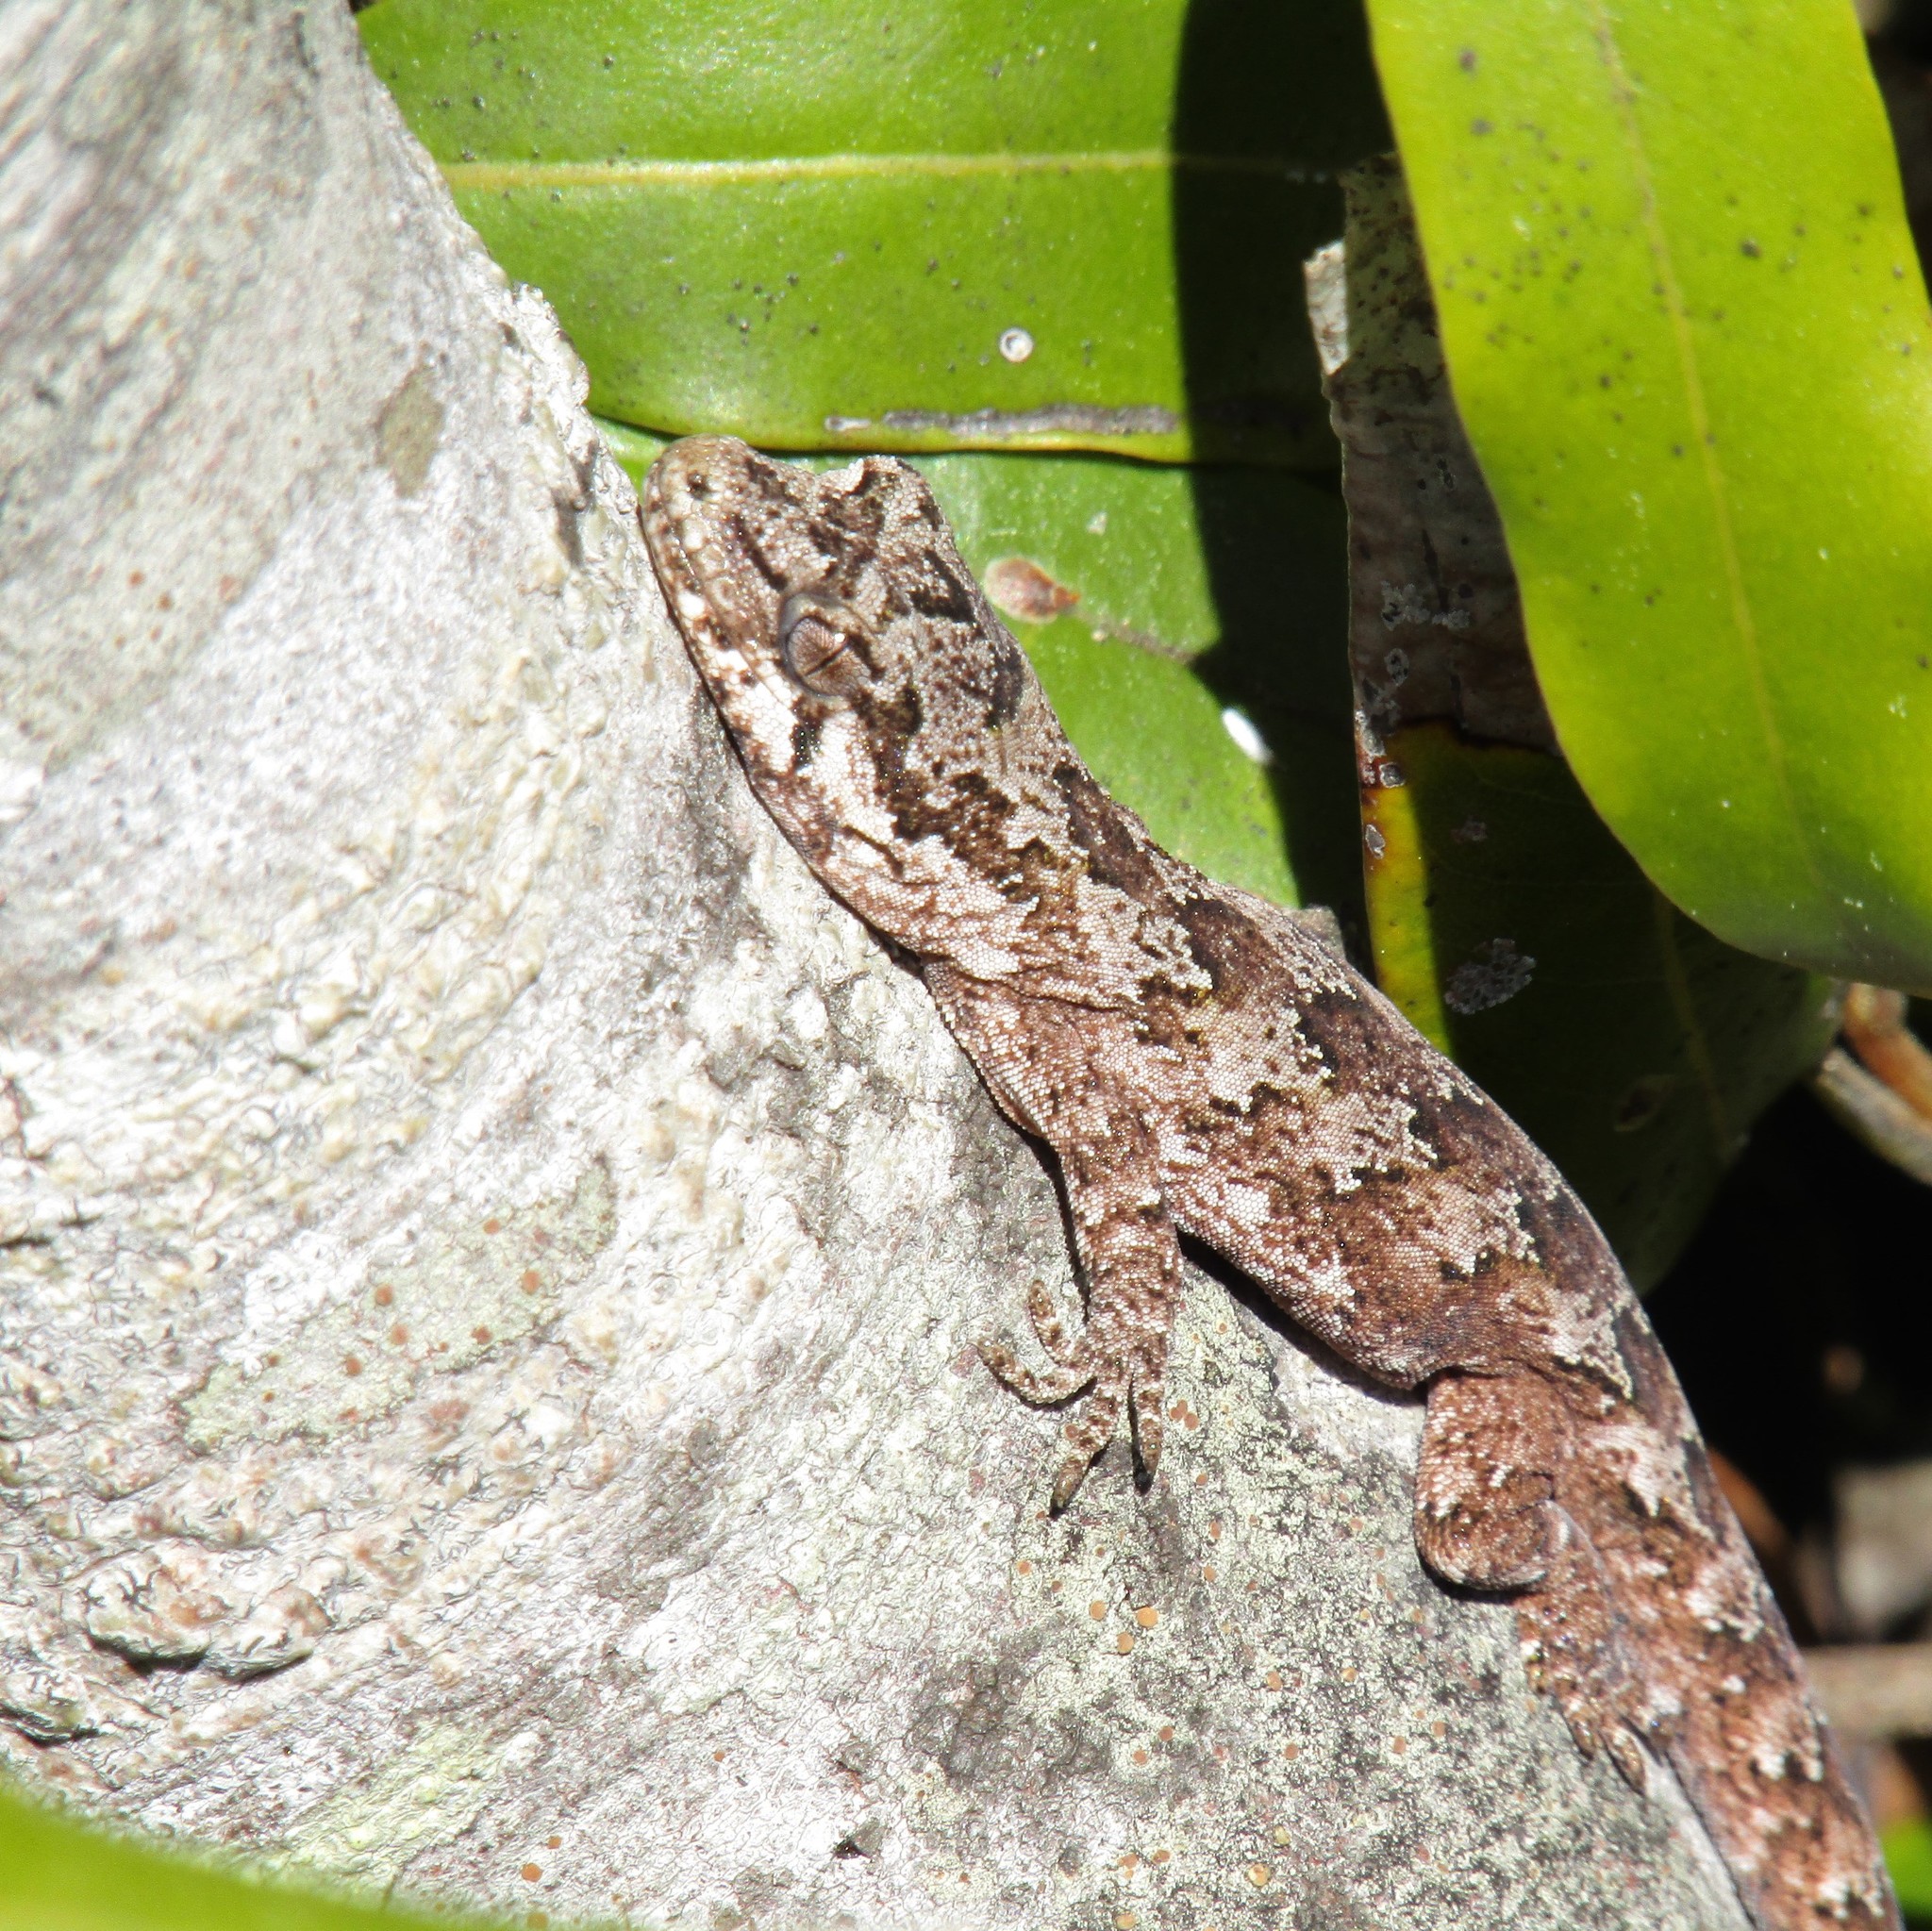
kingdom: Animalia
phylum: Chordata
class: Squamata
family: Diplodactylidae
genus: Mokopirirakau
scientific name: Mokopirirakau
